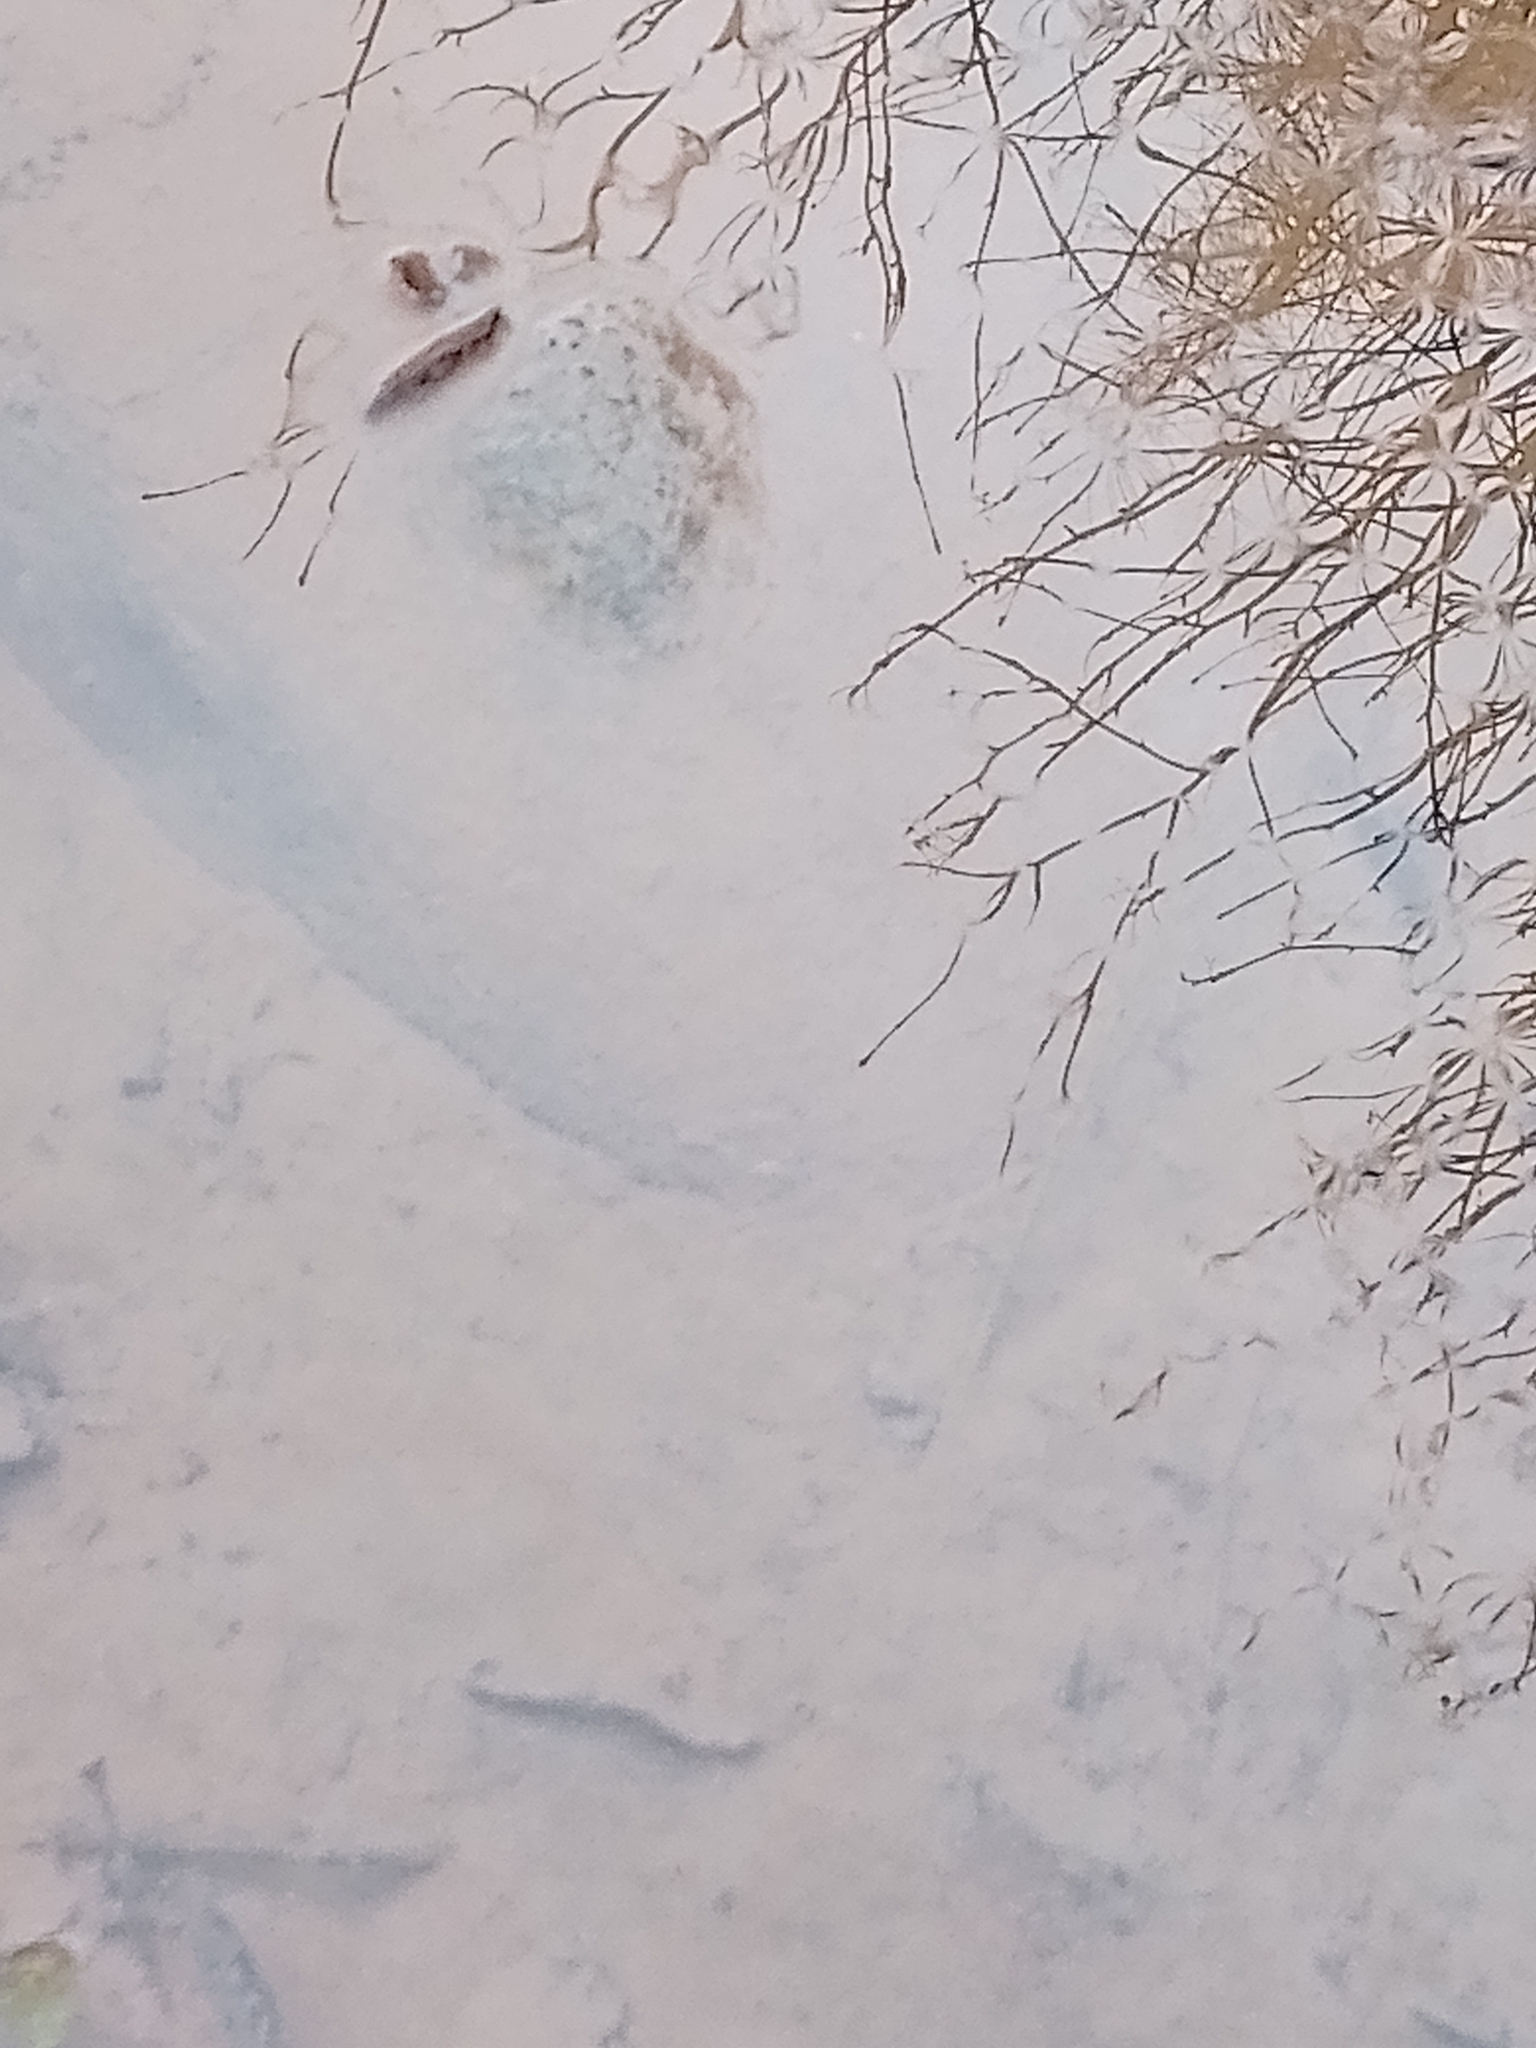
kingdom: Animalia
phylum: Chordata
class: Amphibia
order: Anura
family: Ranidae
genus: Rana
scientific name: Rana temporaria
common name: Common frog
